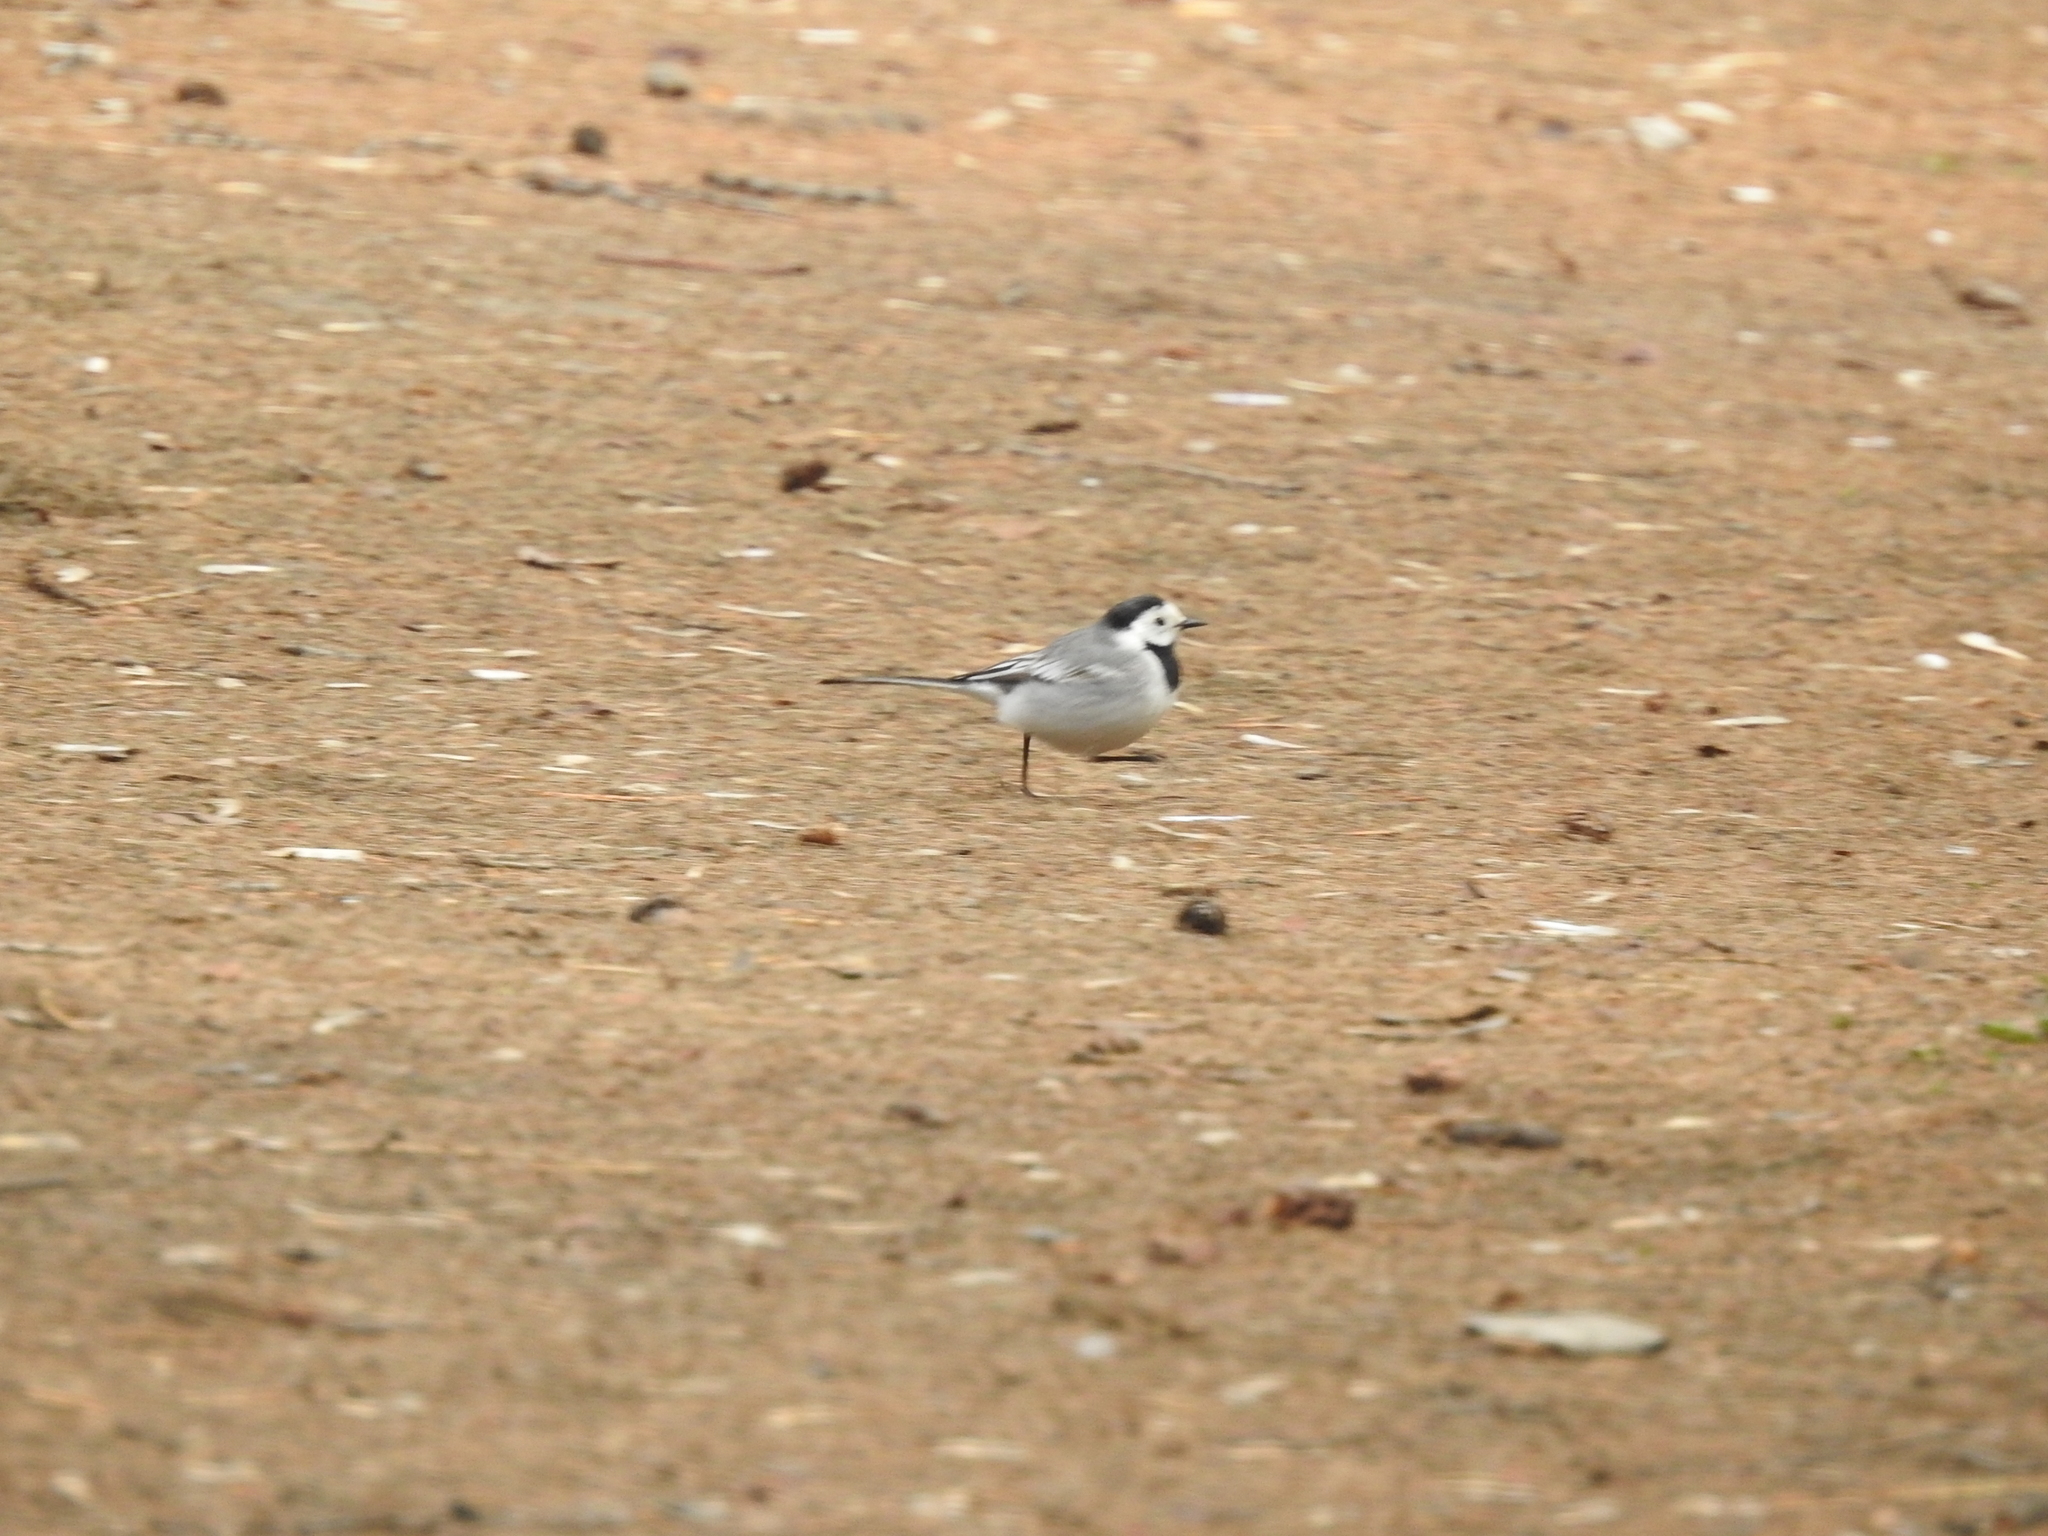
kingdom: Animalia
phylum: Chordata
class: Aves
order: Passeriformes
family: Motacillidae
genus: Motacilla
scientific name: Motacilla alba
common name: White wagtail
